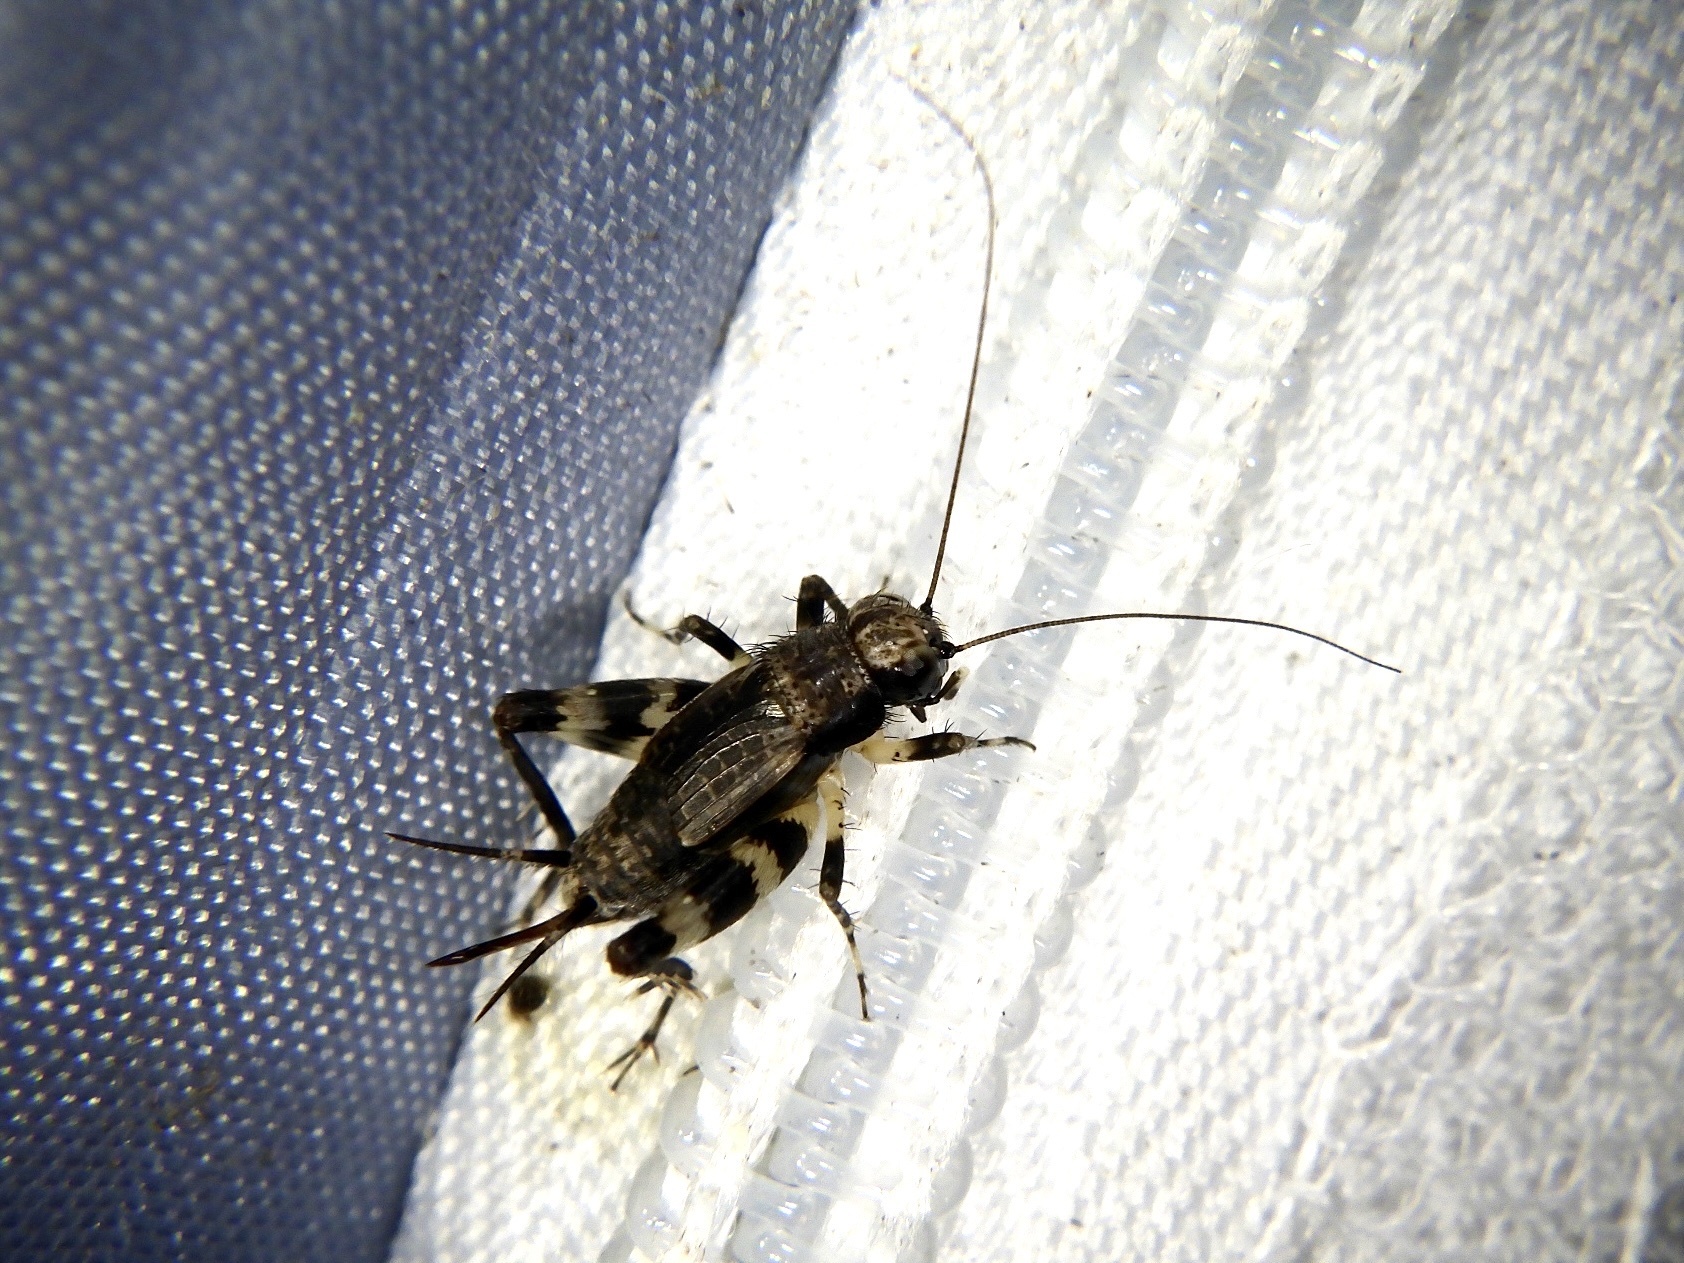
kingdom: Animalia
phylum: Arthropoda
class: Insecta
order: Orthoptera
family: Trigonidiidae
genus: Dianemobius
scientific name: Dianemobius fascipes
